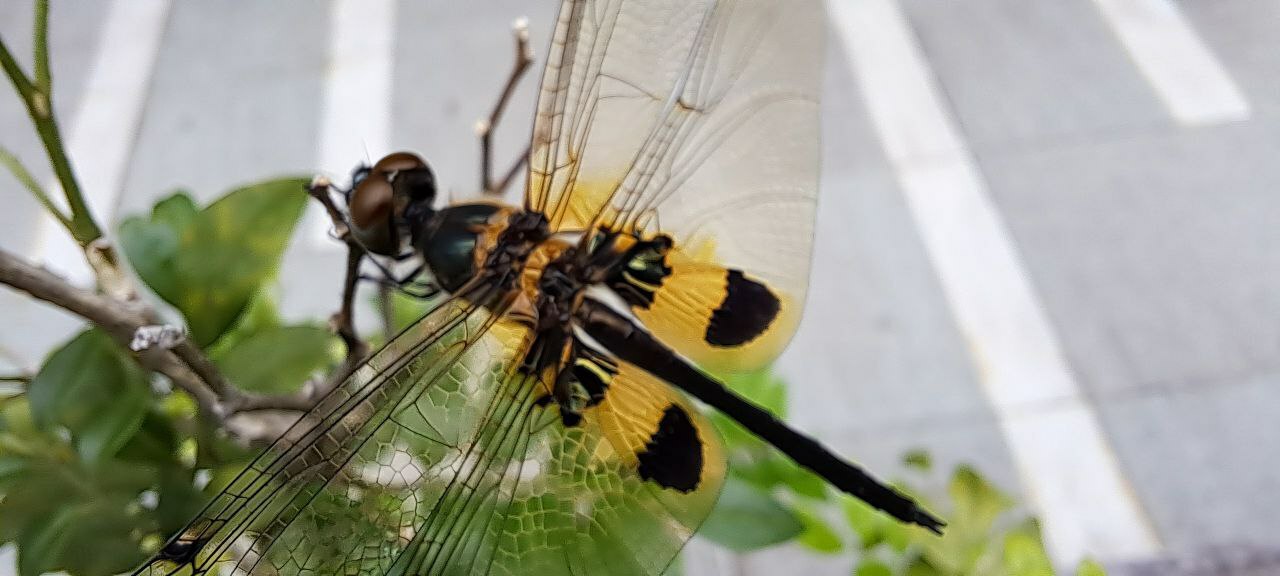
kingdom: Animalia
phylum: Arthropoda
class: Insecta
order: Odonata
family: Libellulidae
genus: Rhyothemis
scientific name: Rhyothemis phyllis
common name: Yellow-barred flutterer
